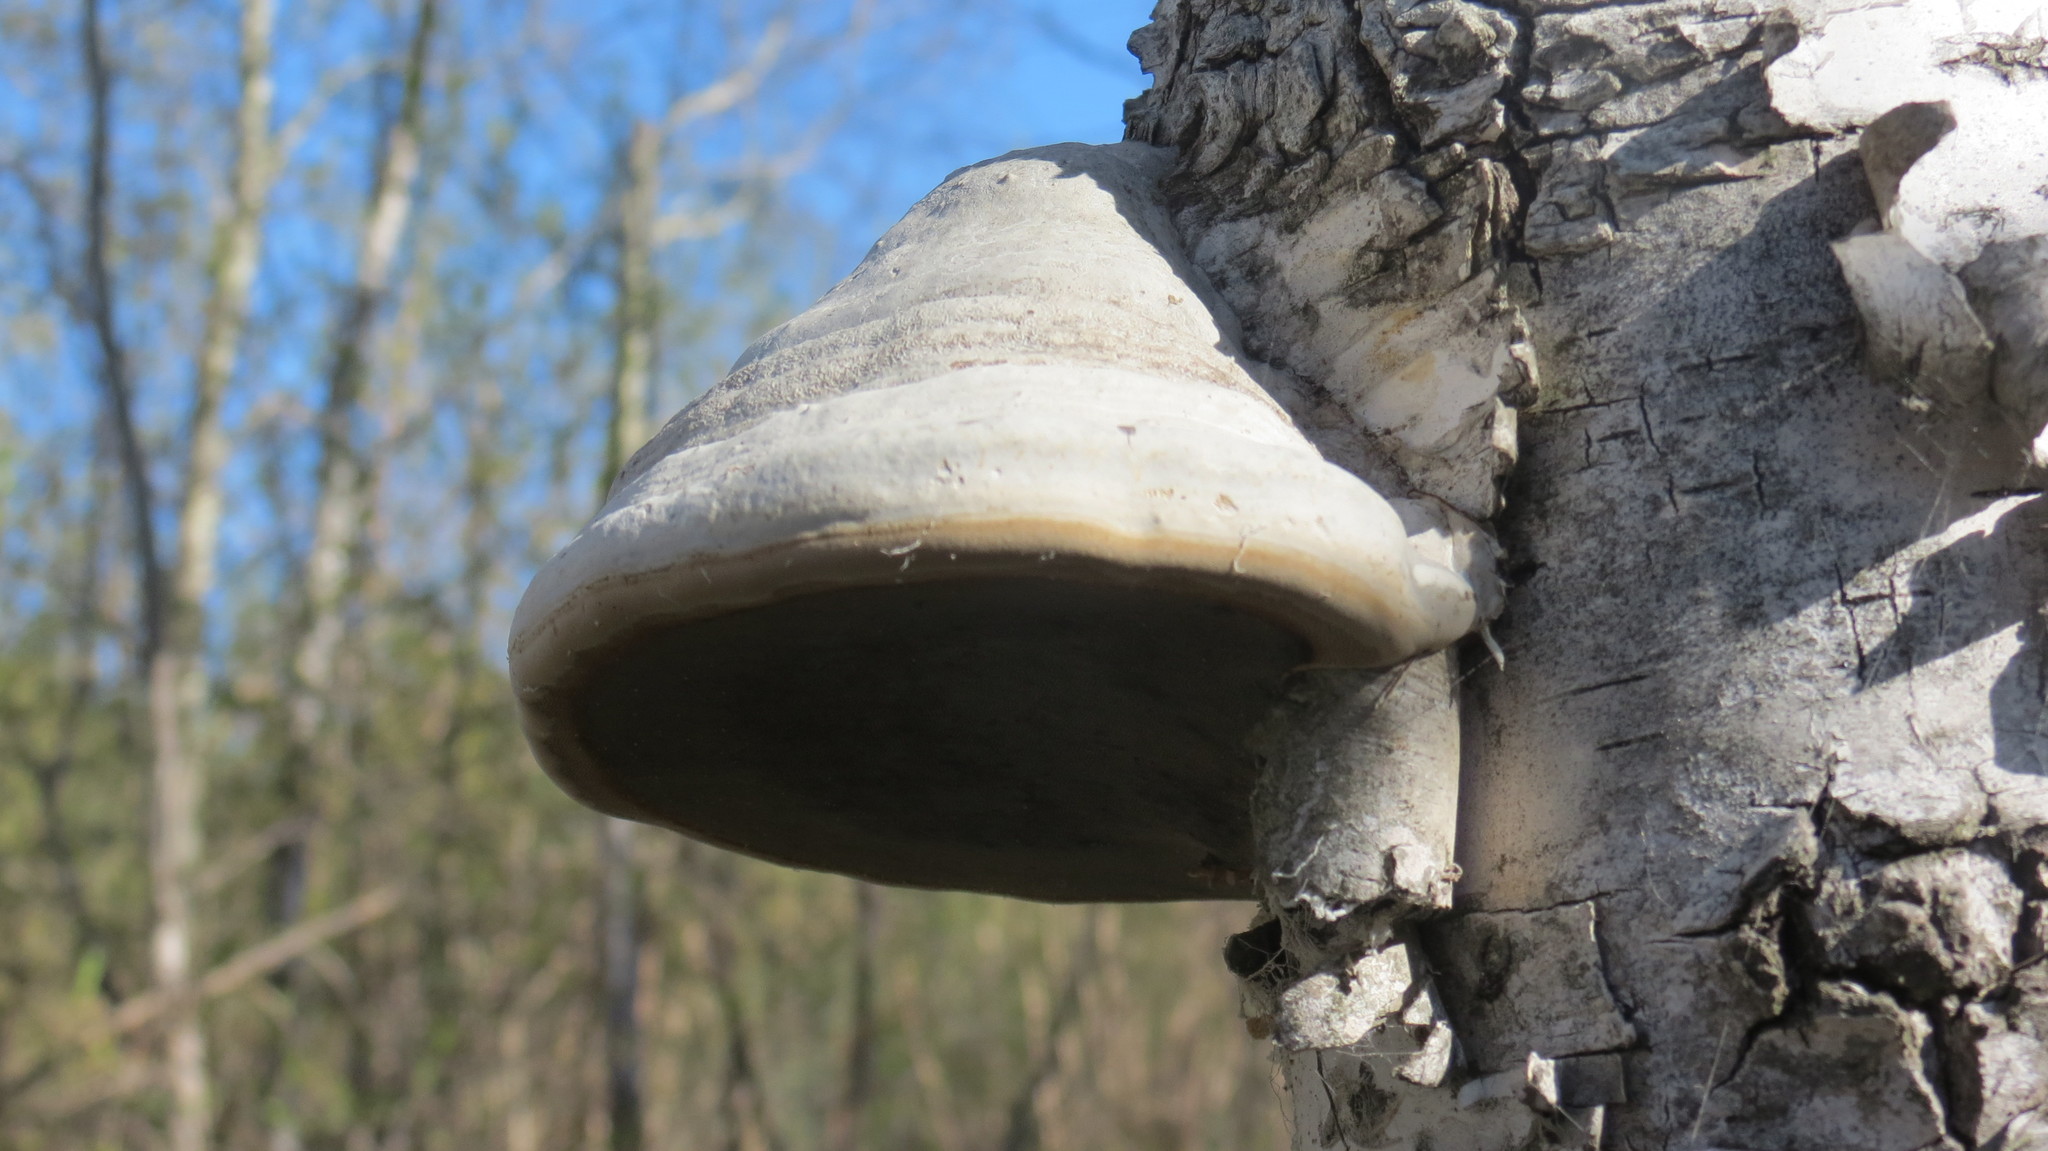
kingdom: Fungi
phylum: Basidiomycota
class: Agaricomycetes
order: Polyporales
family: Polyporaceae
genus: Fomes
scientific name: Fomes fomentarius
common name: Hoof fungus
